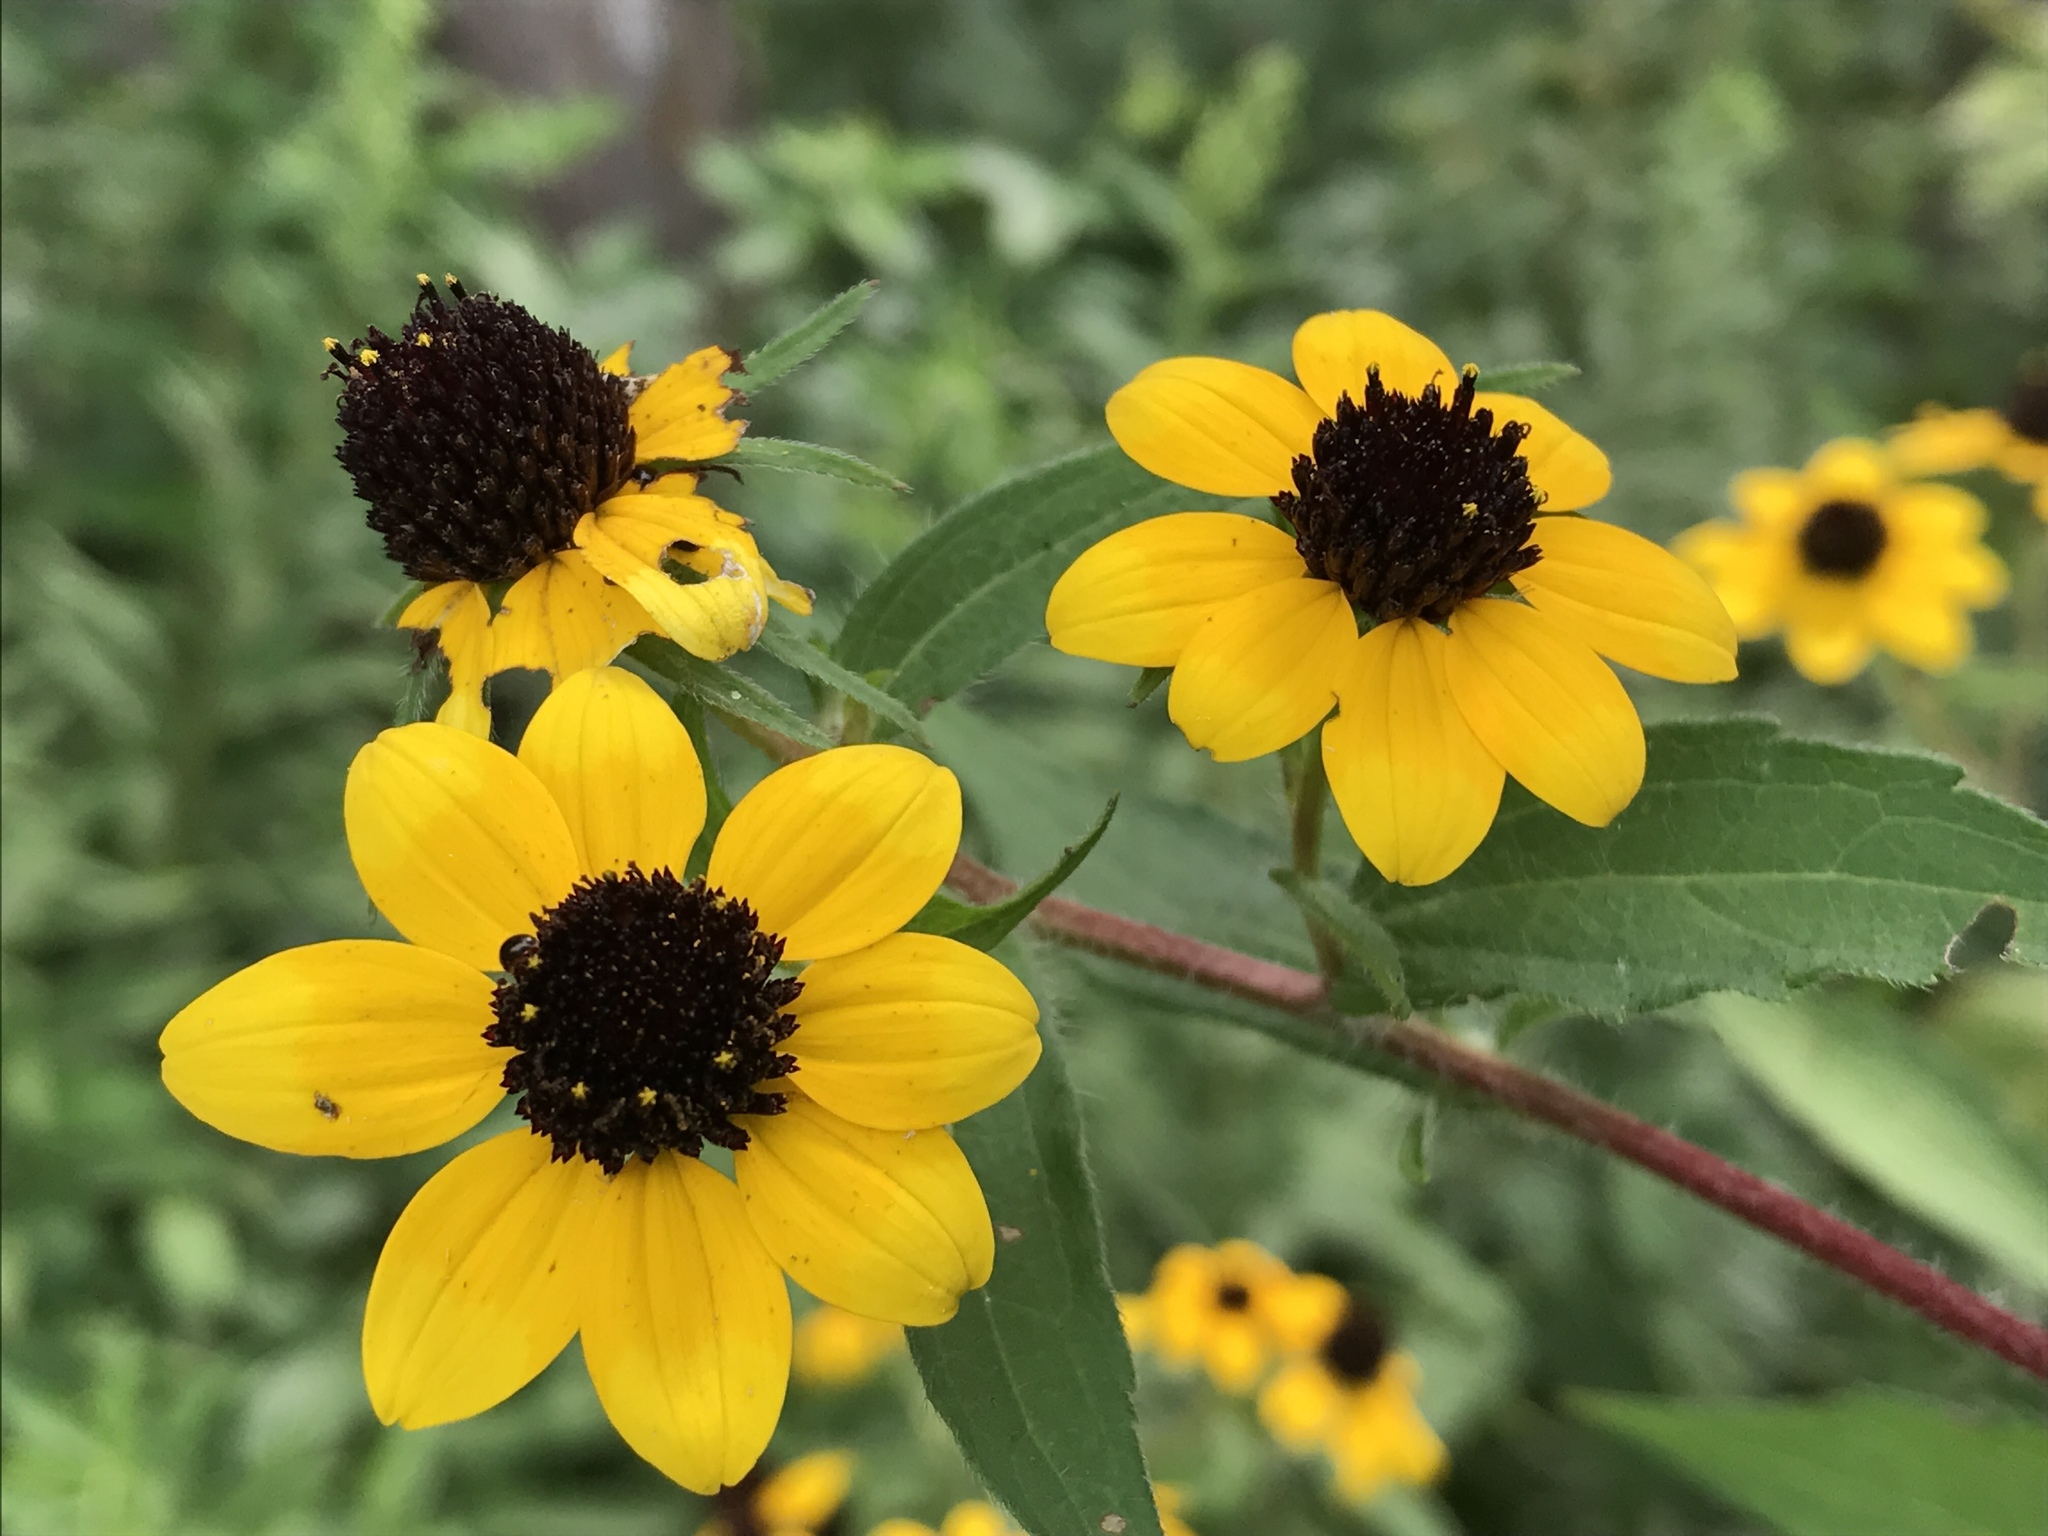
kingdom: Plantae
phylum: Tracheophyta
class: Magnoliopsida
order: Asterales
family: Asteraceae
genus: Rudbeckia
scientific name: Rudbeckia triloba
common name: Thin-leaved coneflower
